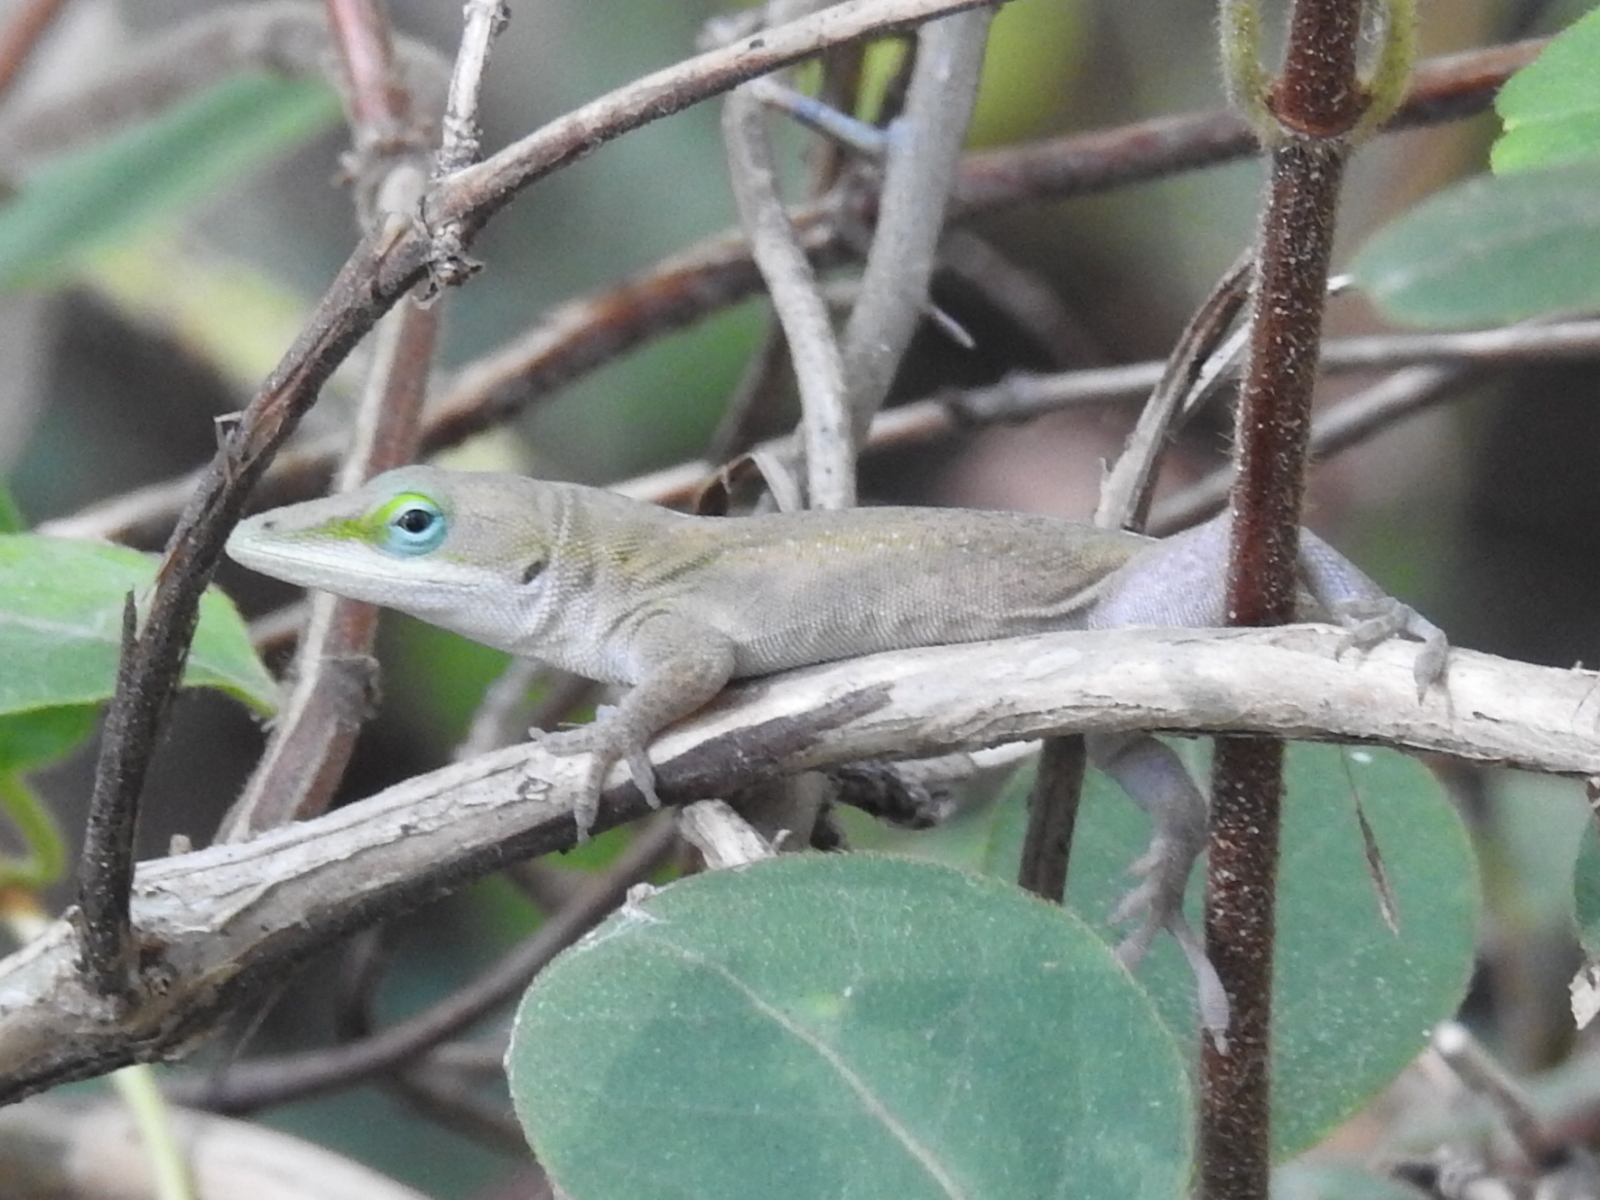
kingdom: Animalia
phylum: Chordata
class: Squamata
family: Dactyloidae
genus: Anolis
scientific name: Anolis carolinensis
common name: Green anole
